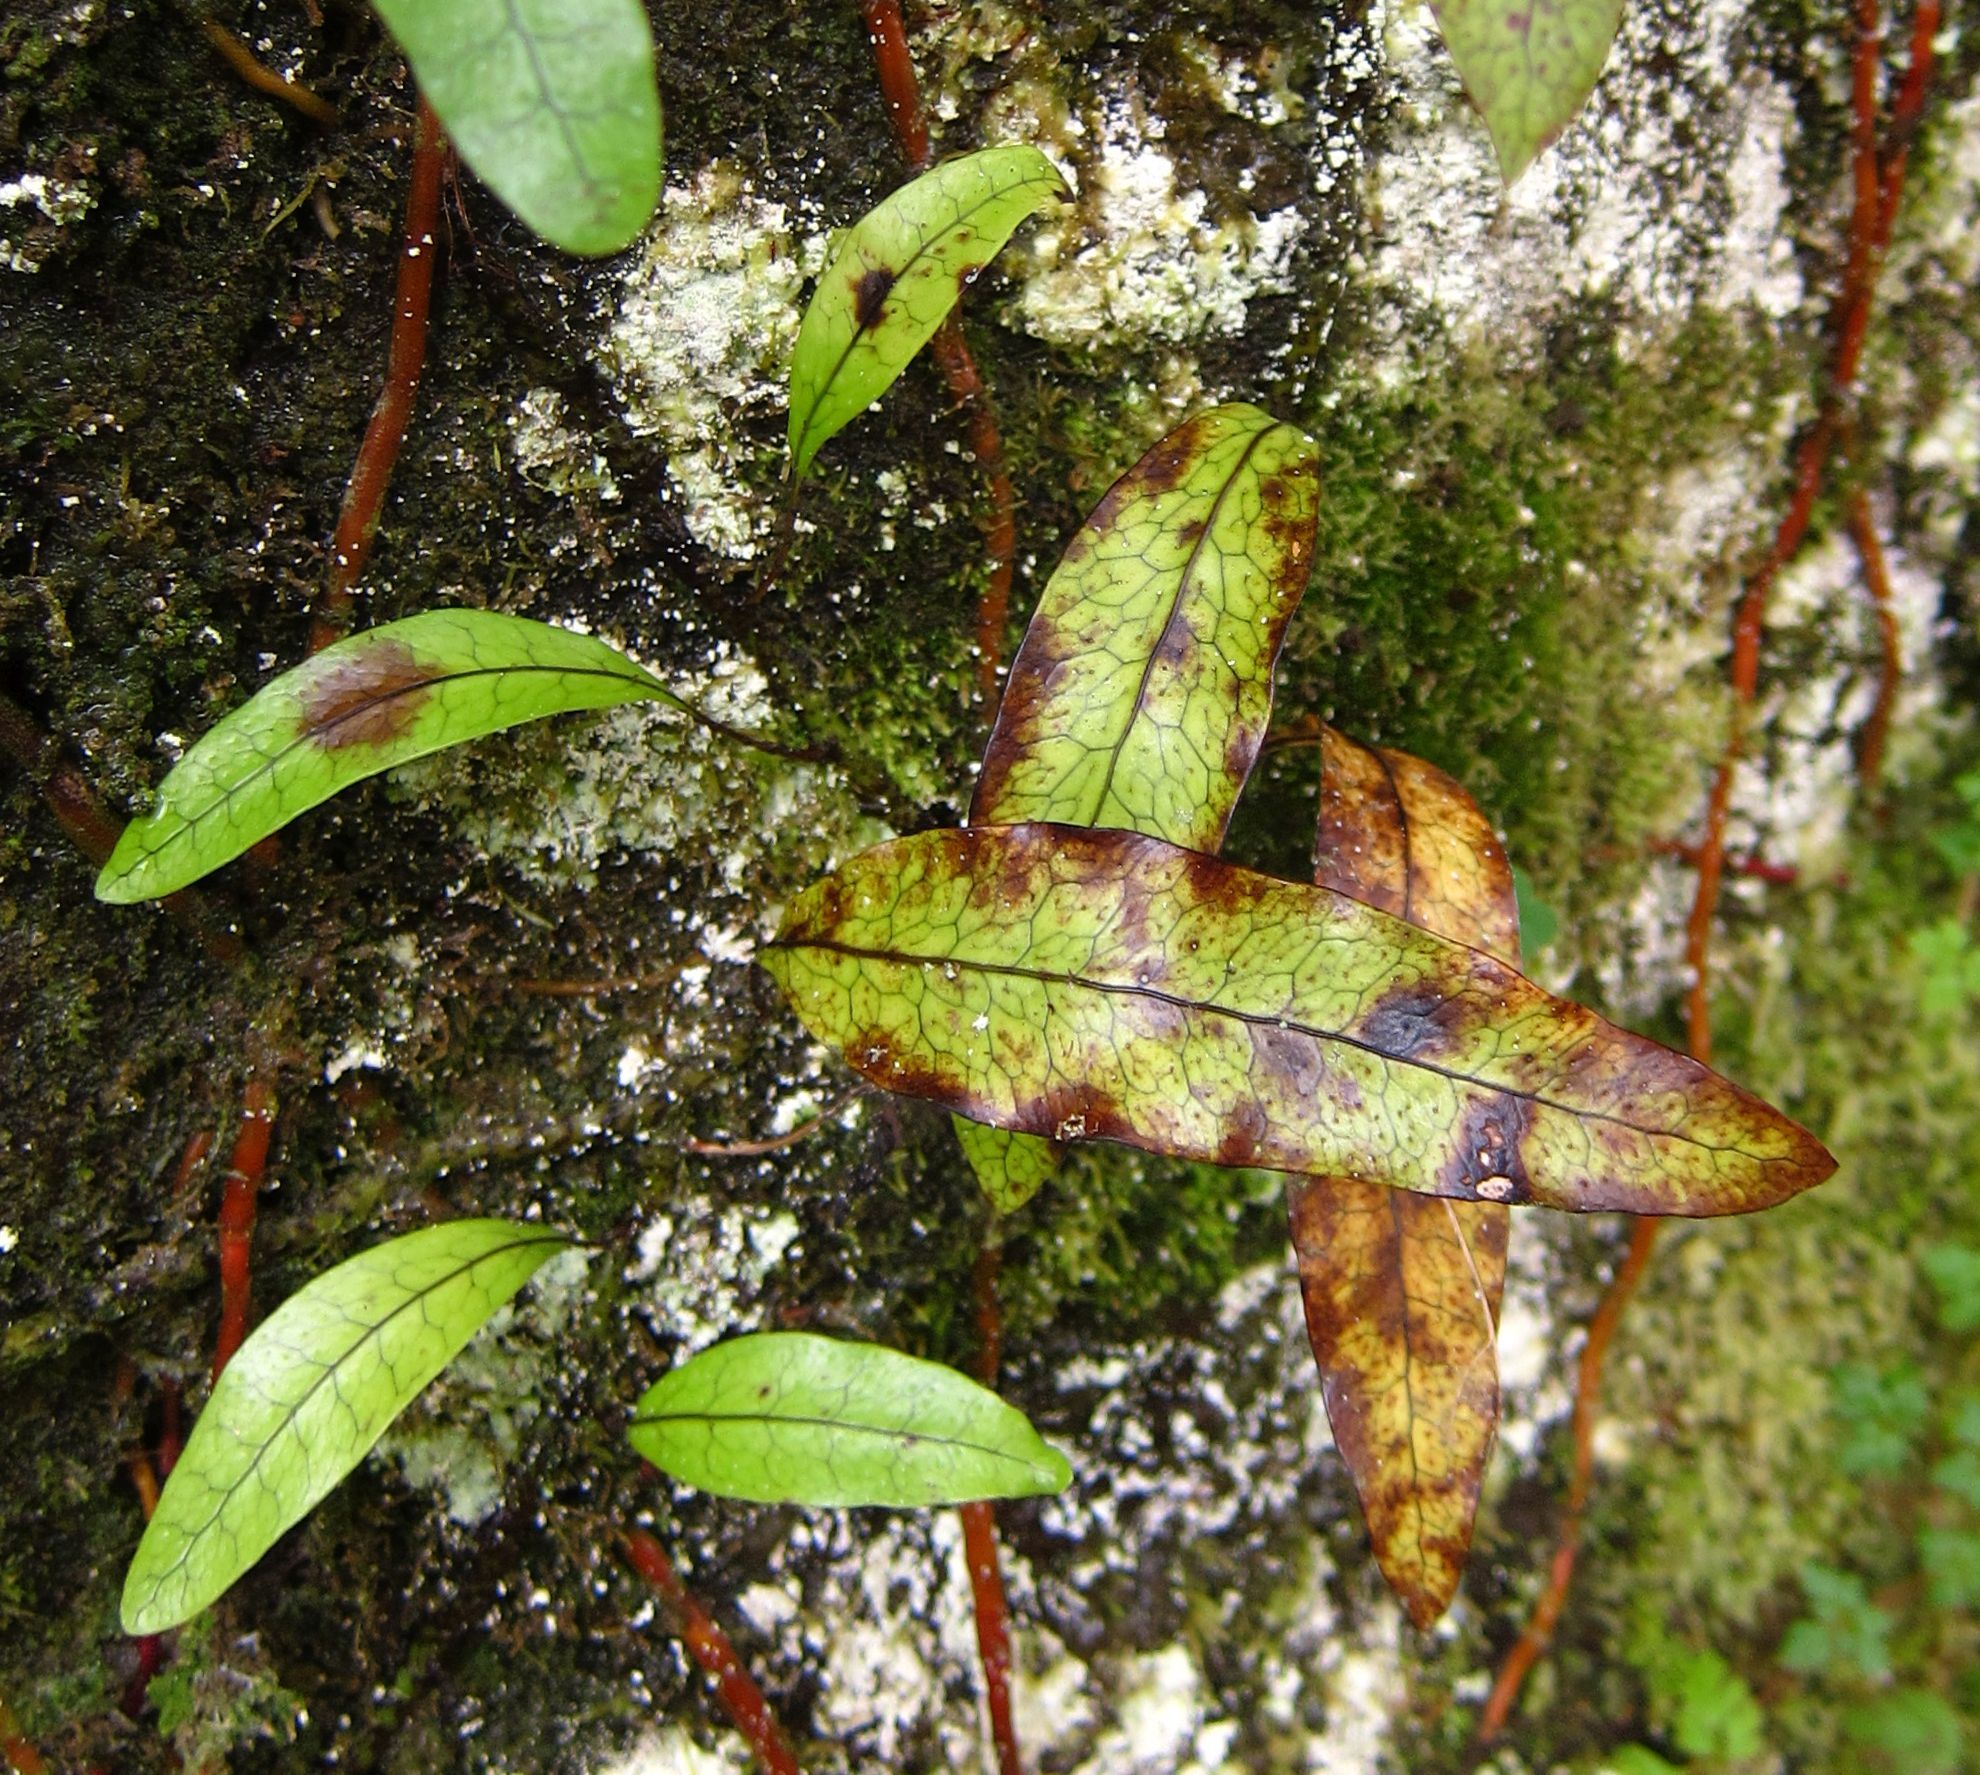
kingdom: Plantae
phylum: Tracheophyta
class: Polypodiopsida
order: Polypodiales
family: Polypodiaceae
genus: Lecanopteris
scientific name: Lecanopteris pustulata
